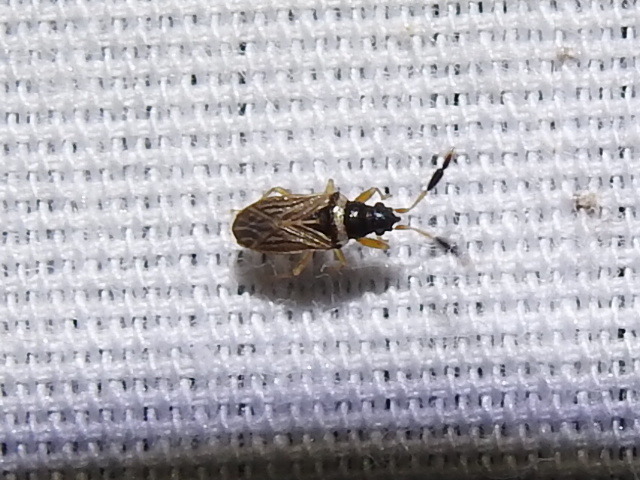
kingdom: Animalia
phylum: Arthropoda
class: Insecta
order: Hemiptera
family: Rhyparochromidae
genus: Ptochiomera
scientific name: Ptochiomera nodosa
